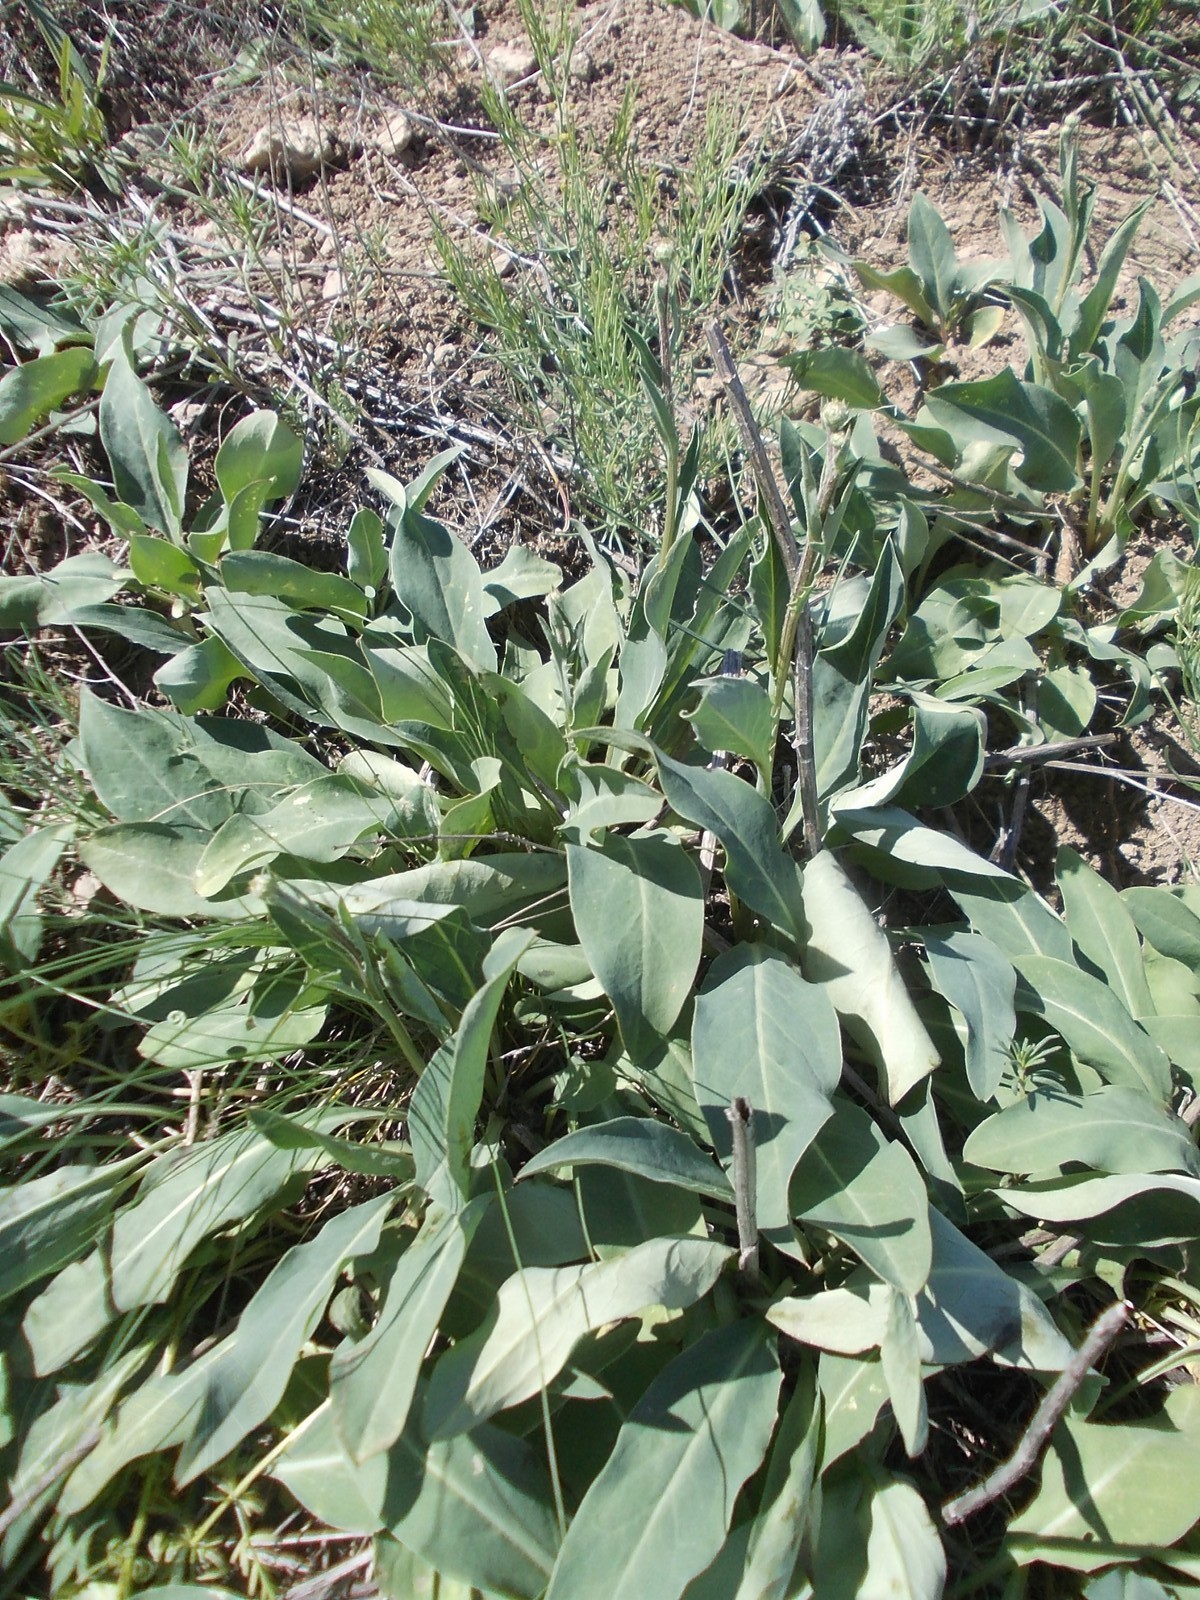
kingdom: Plantae
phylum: Tracheophyta
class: Magnoliopsida
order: Asterales
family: Asteraceae
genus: Klasea
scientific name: Klasea cardunculus
